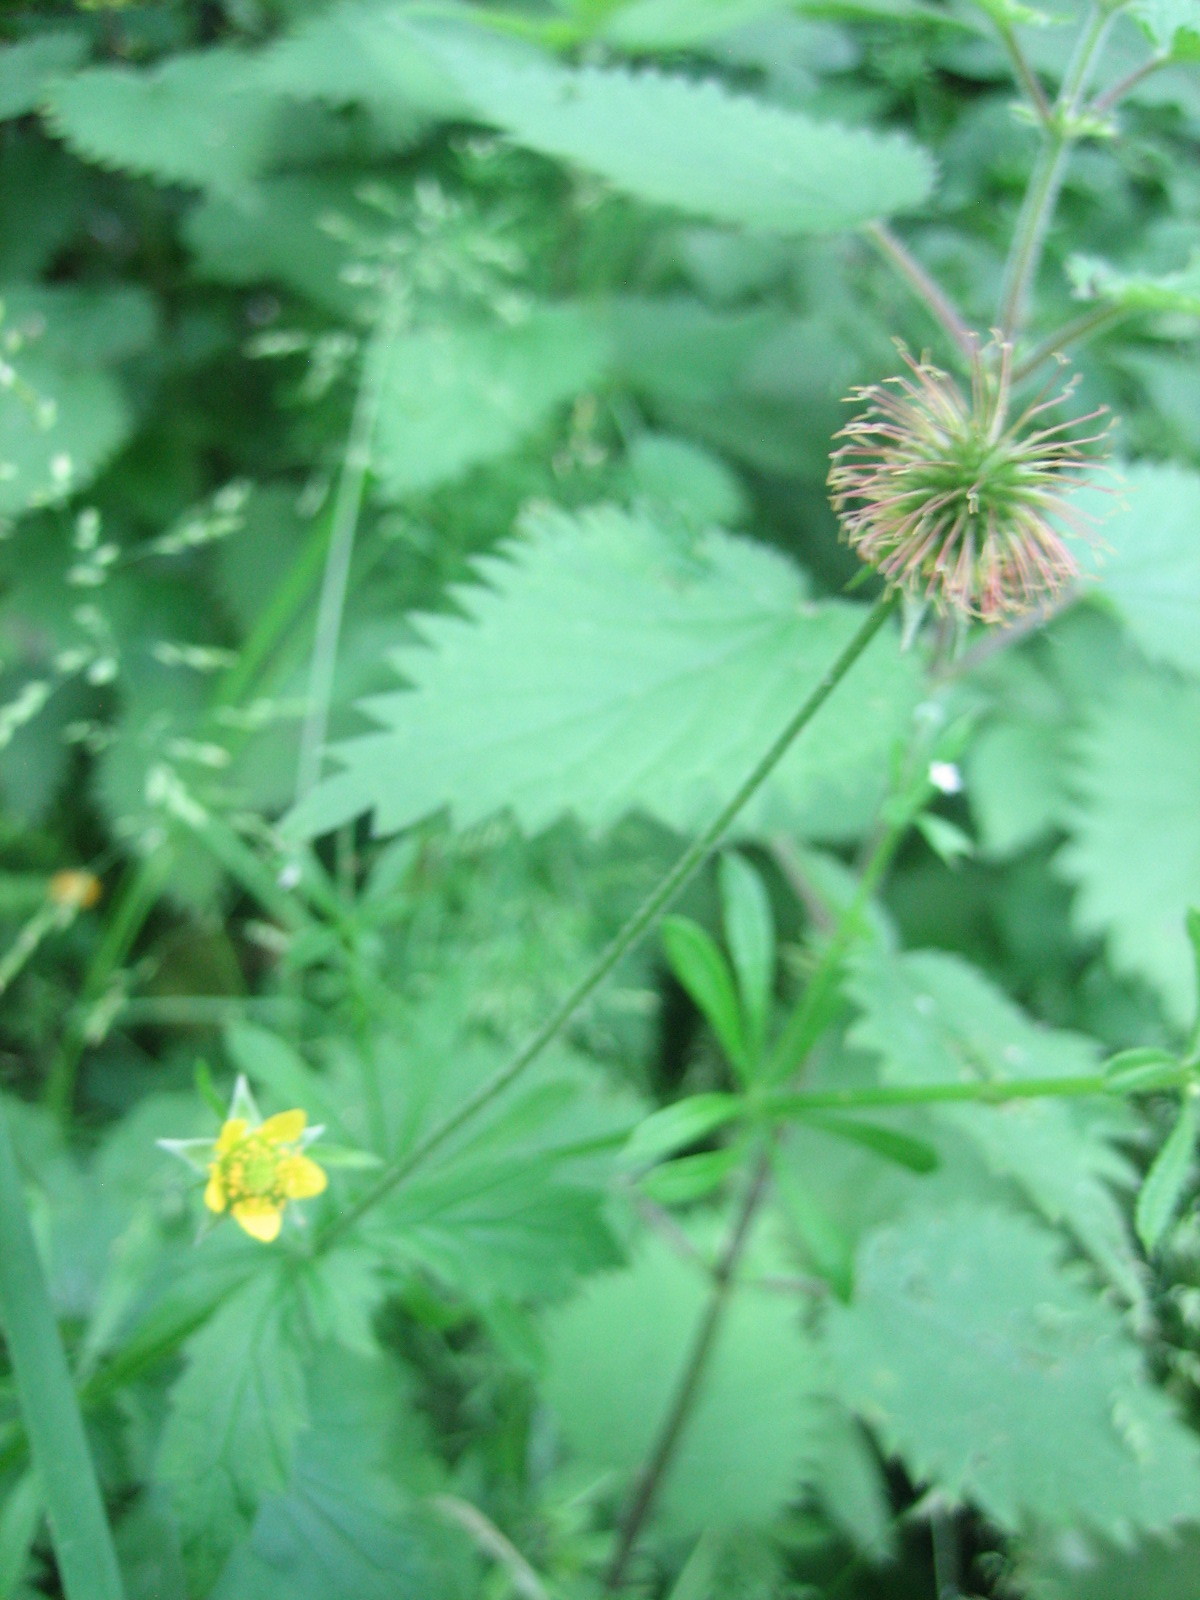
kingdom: Plantae
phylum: Tracheophyta
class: Magnoliopsida
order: Rosales
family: Rosaceae
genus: Geum
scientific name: Geum urbanum
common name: Wood avens
